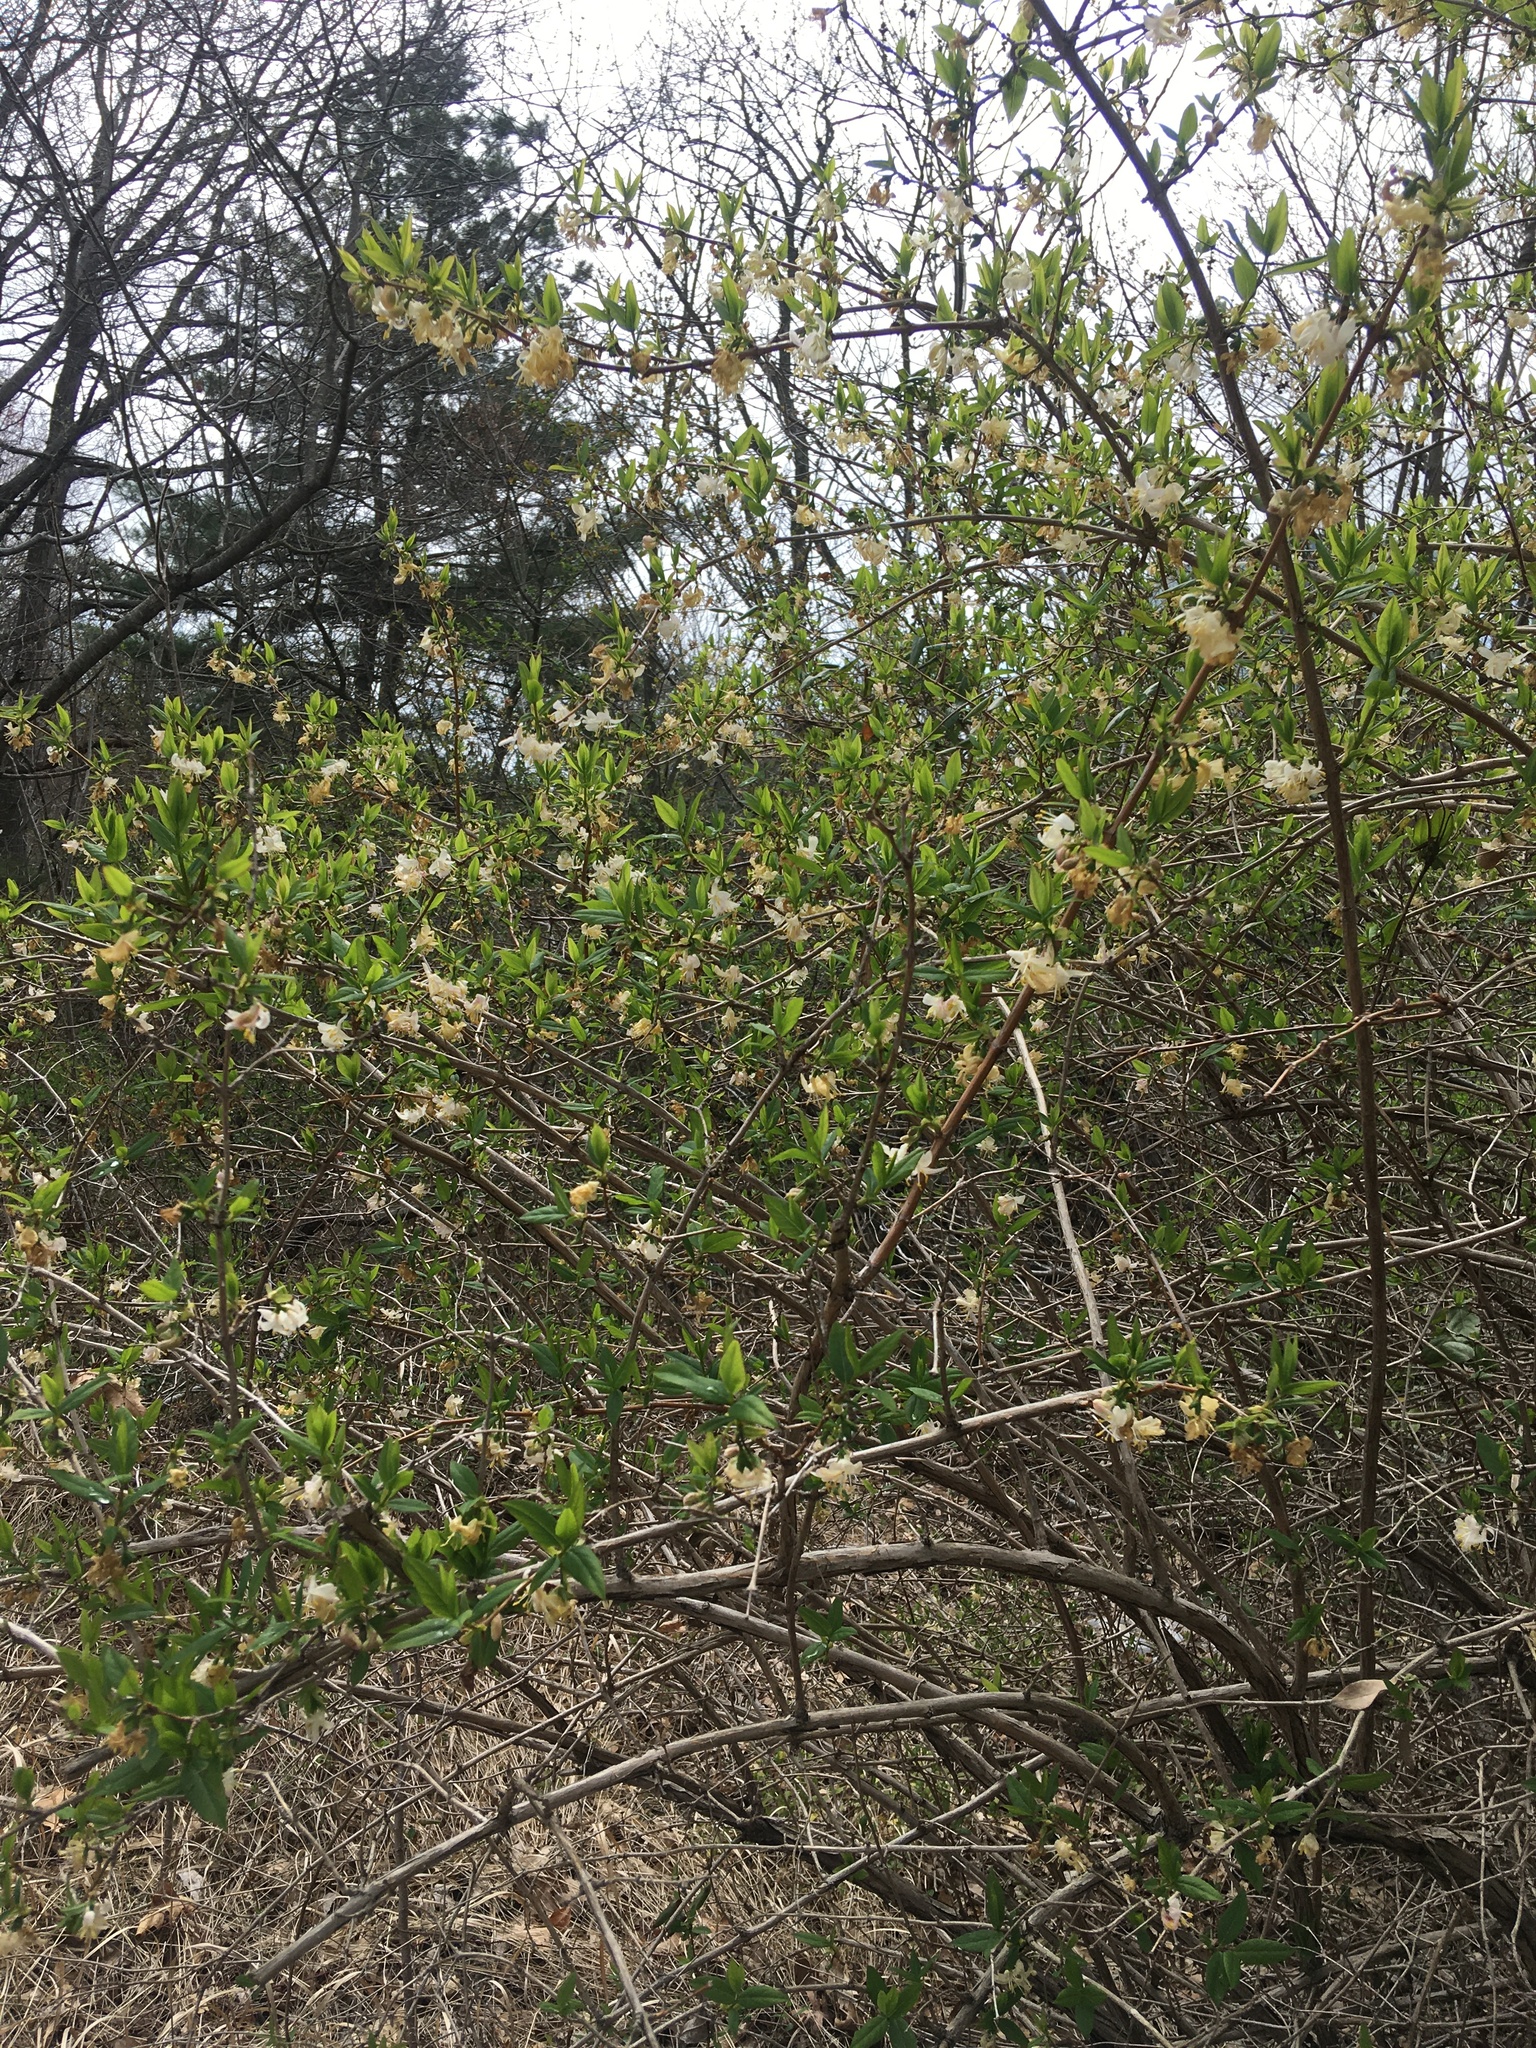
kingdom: Plantae
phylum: Tracheophyta
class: Magnoliopsida
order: Dipsacales
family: Caprifoliaceae
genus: Lonicera
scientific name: Lonicera fragrantissima
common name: Fragrant honeysuckle
